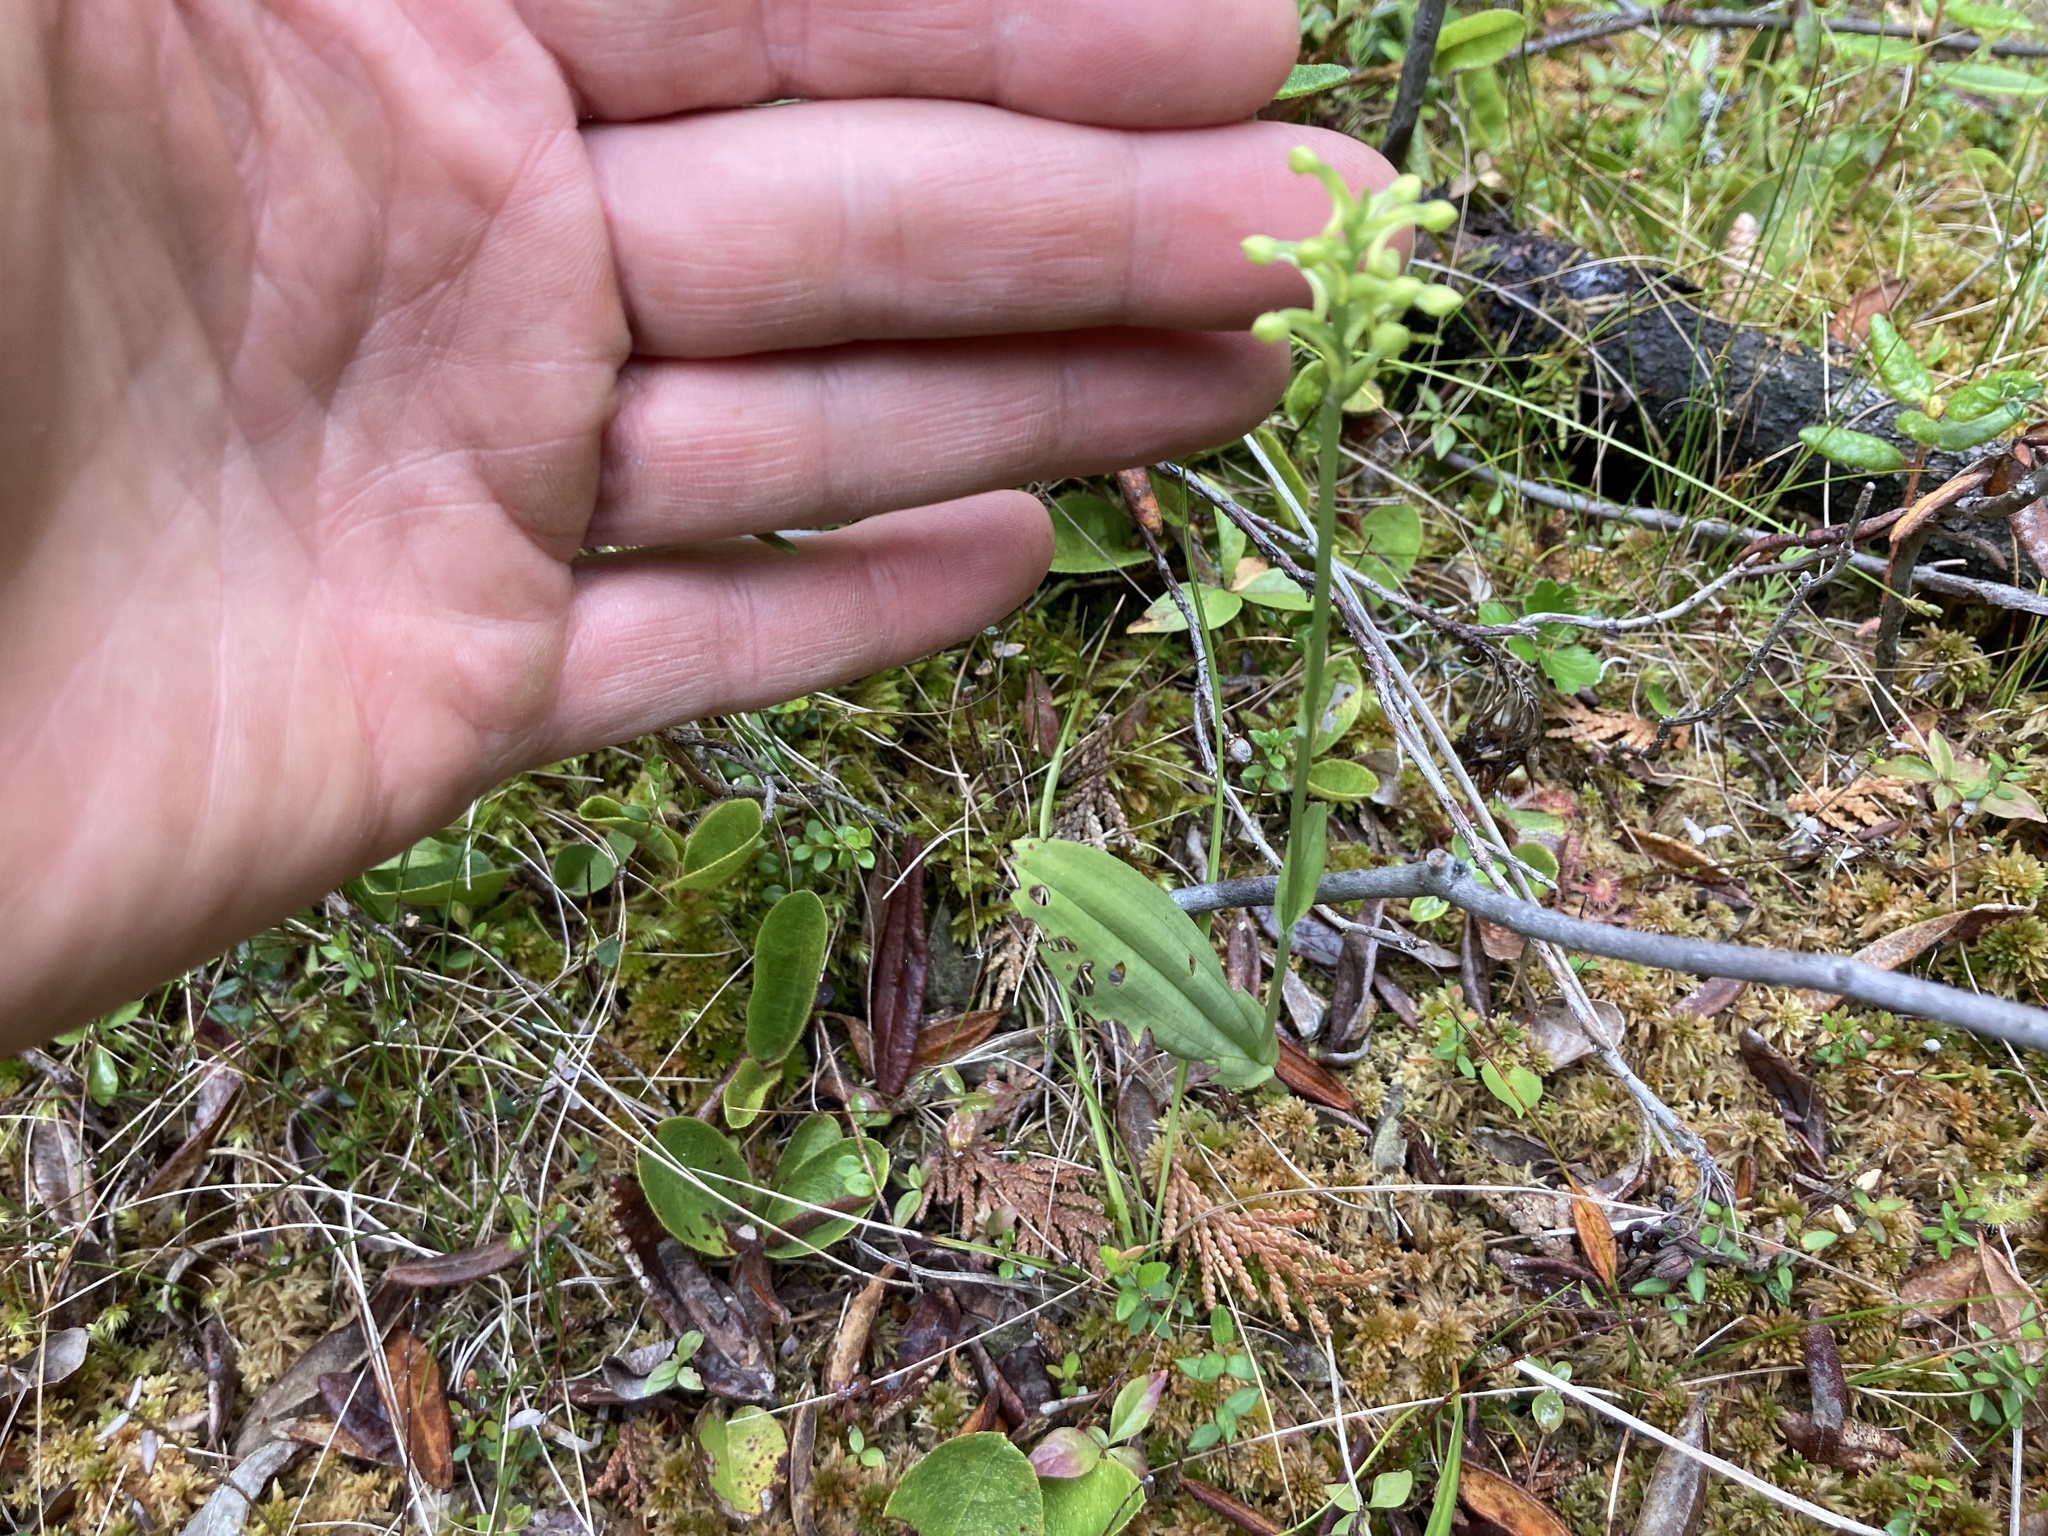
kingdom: Plantae
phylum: Tracheophyta
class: Liliopsida
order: Asparagales
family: Orchidaceae
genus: Platanthera
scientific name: Platanthera clavellata
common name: Club-spur orchid
